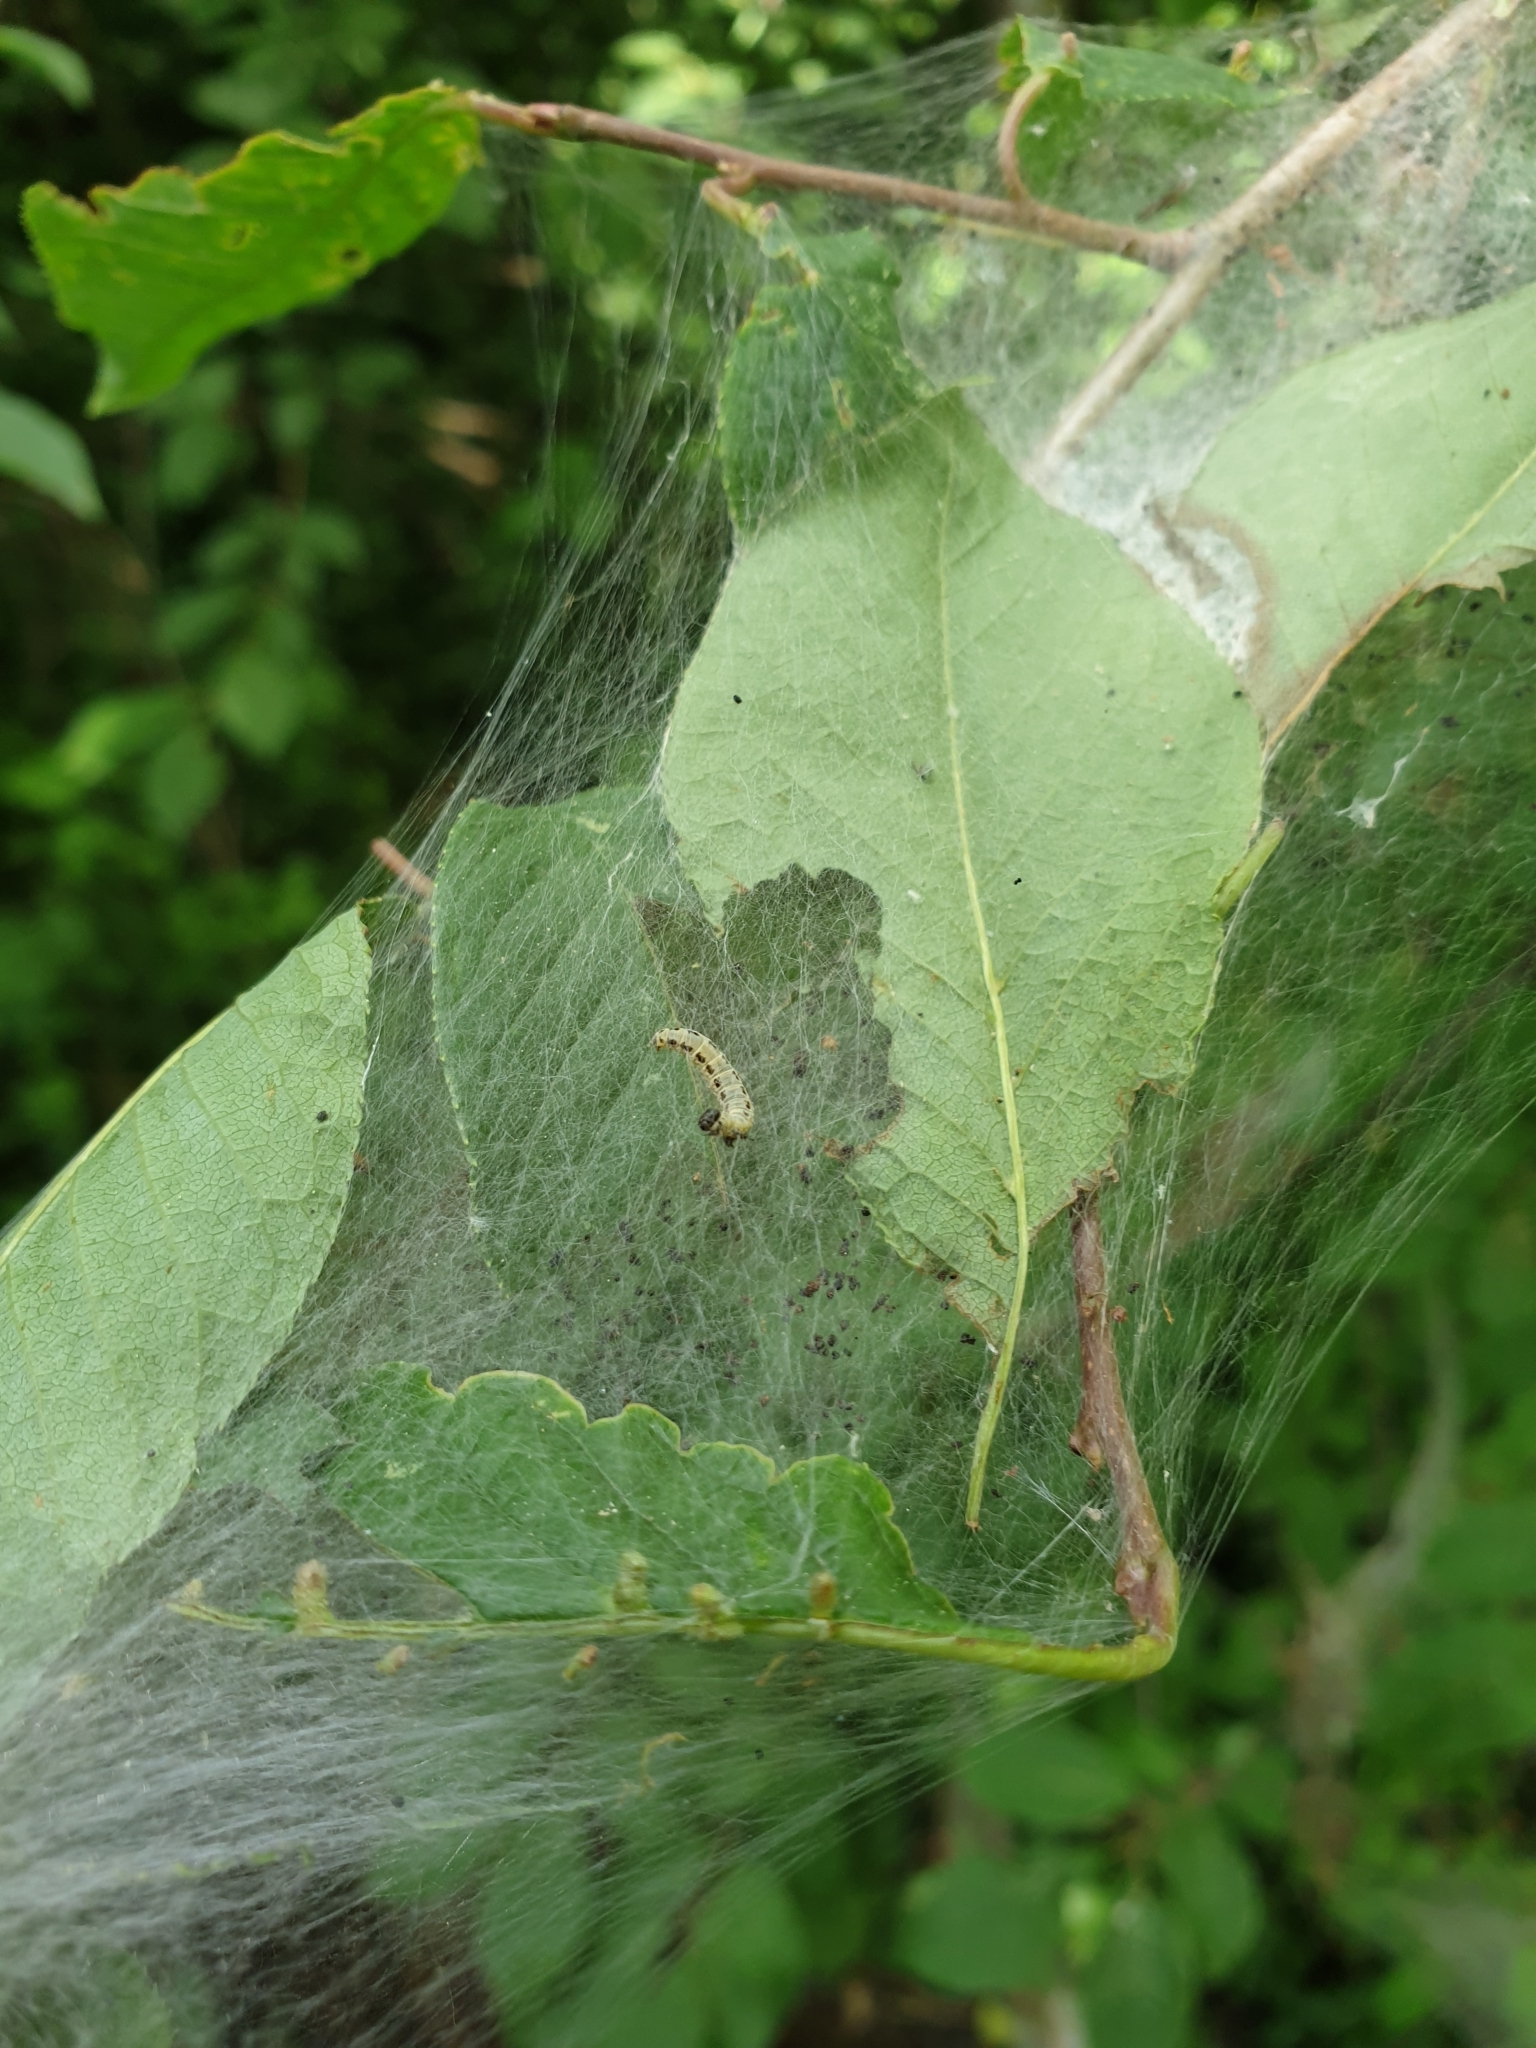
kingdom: Animalia
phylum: Arthropoda
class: Insecta
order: Lepidoptera
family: Yponomeutidae
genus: Yponomeuta
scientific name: Yponomeuta evonymella
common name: Bird-cherry ermine
